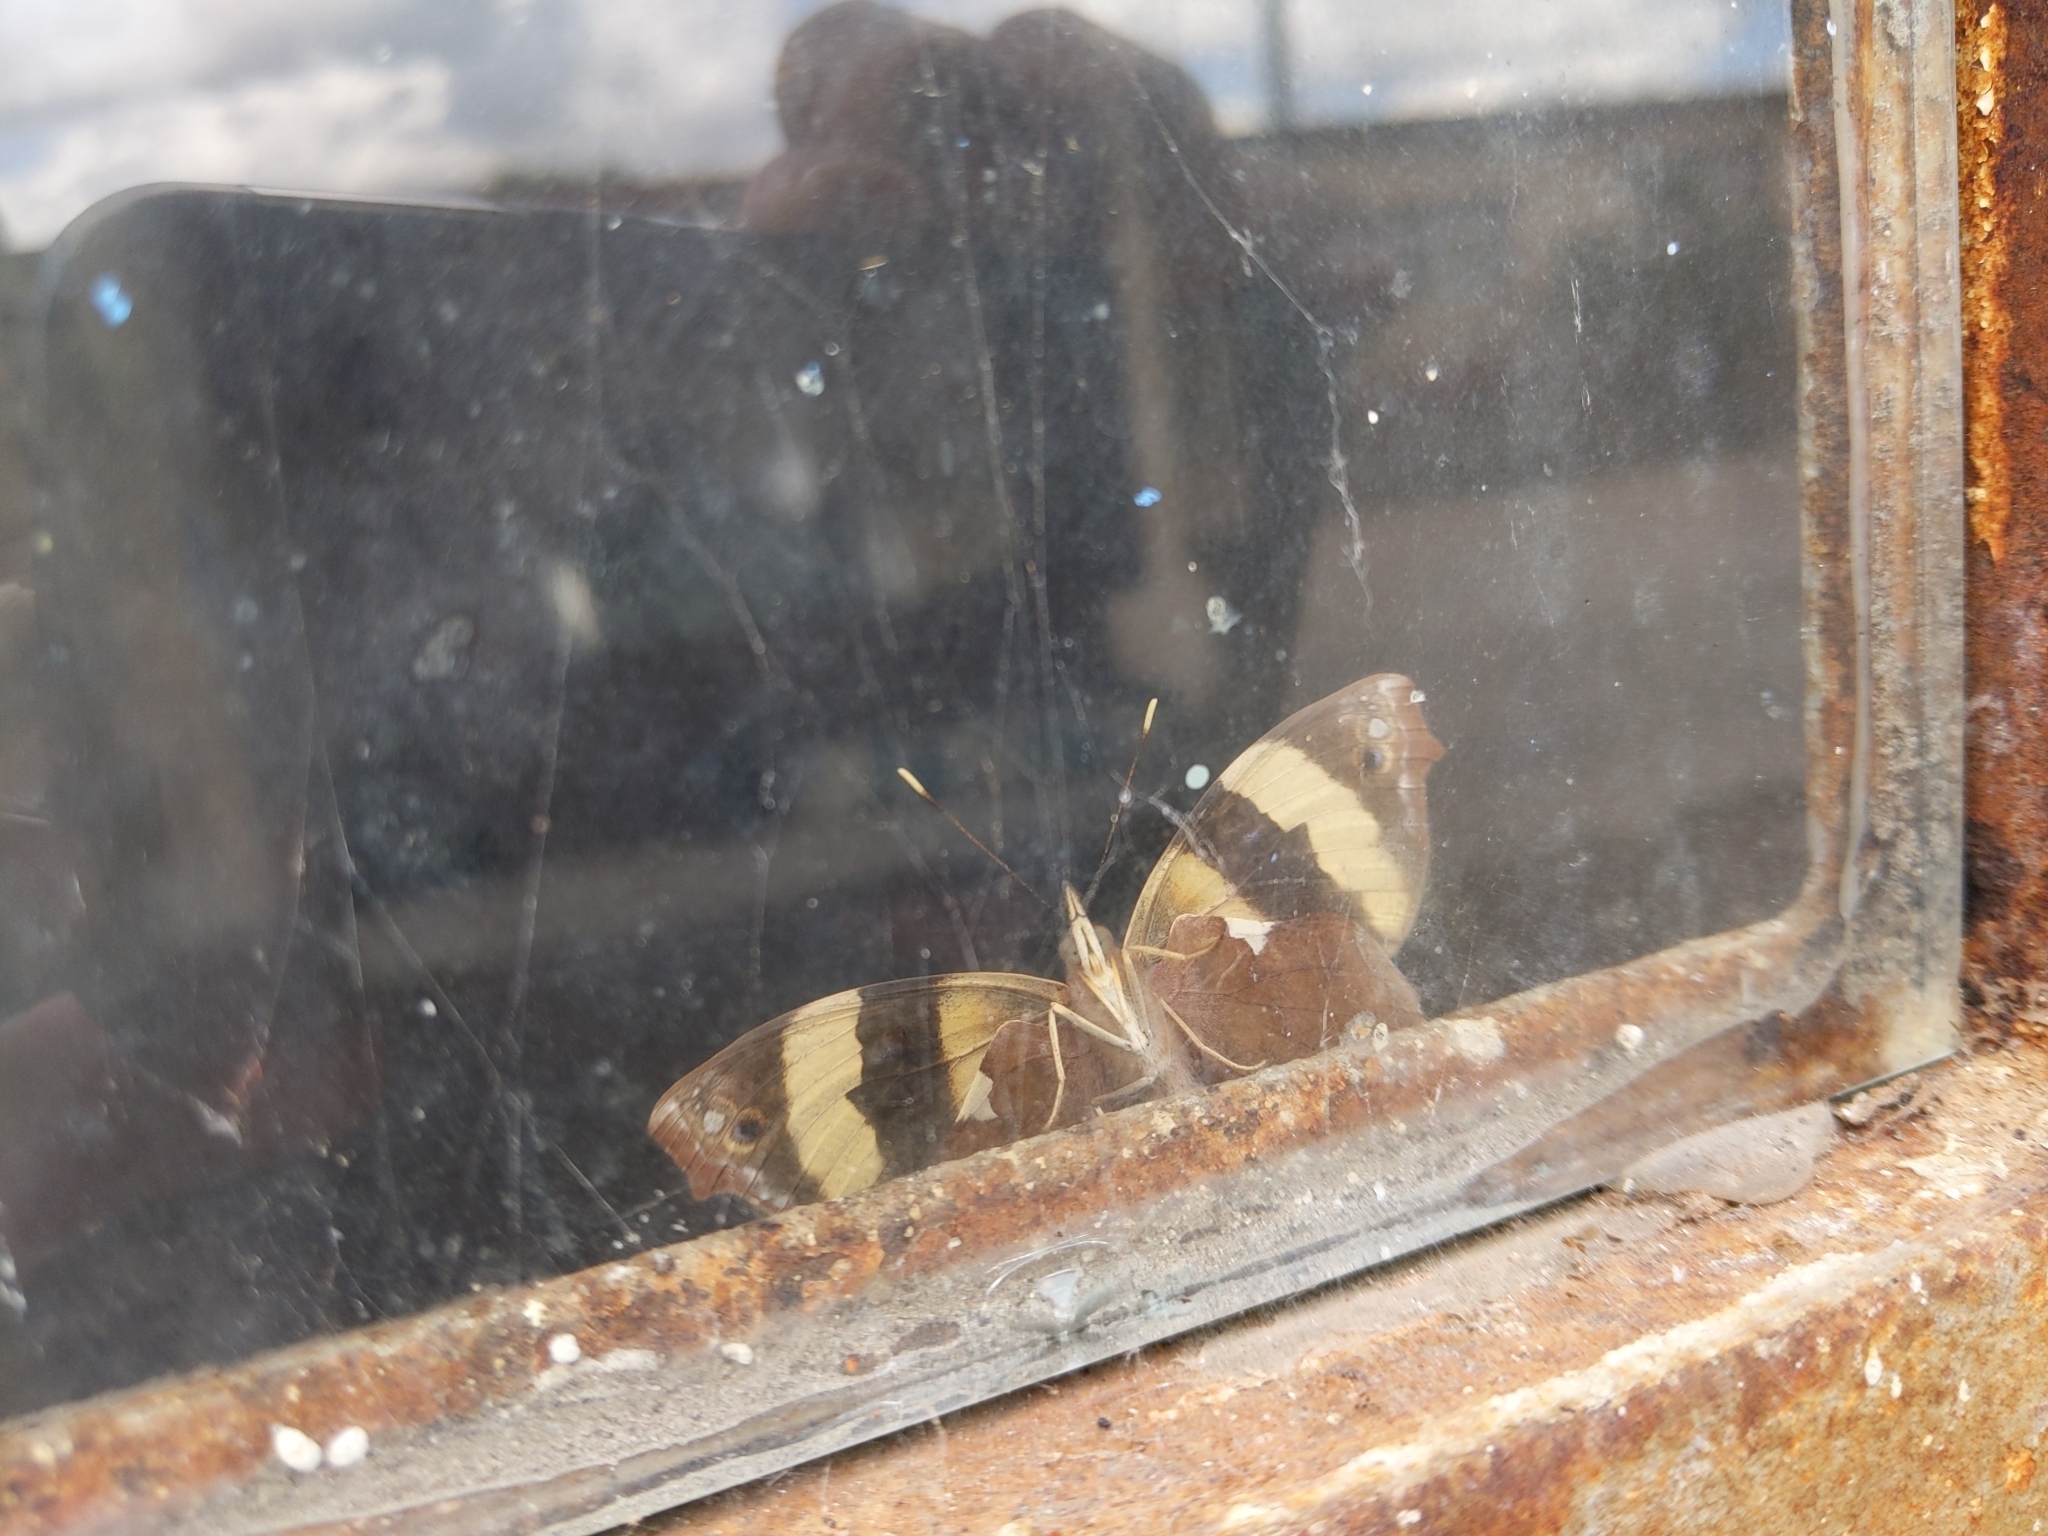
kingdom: Animalia
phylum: Arthropoda
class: Insecta
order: Lepidoptera
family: Nymphalidae
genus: Epiphile
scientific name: Epiphile adrasta
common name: Common banner
